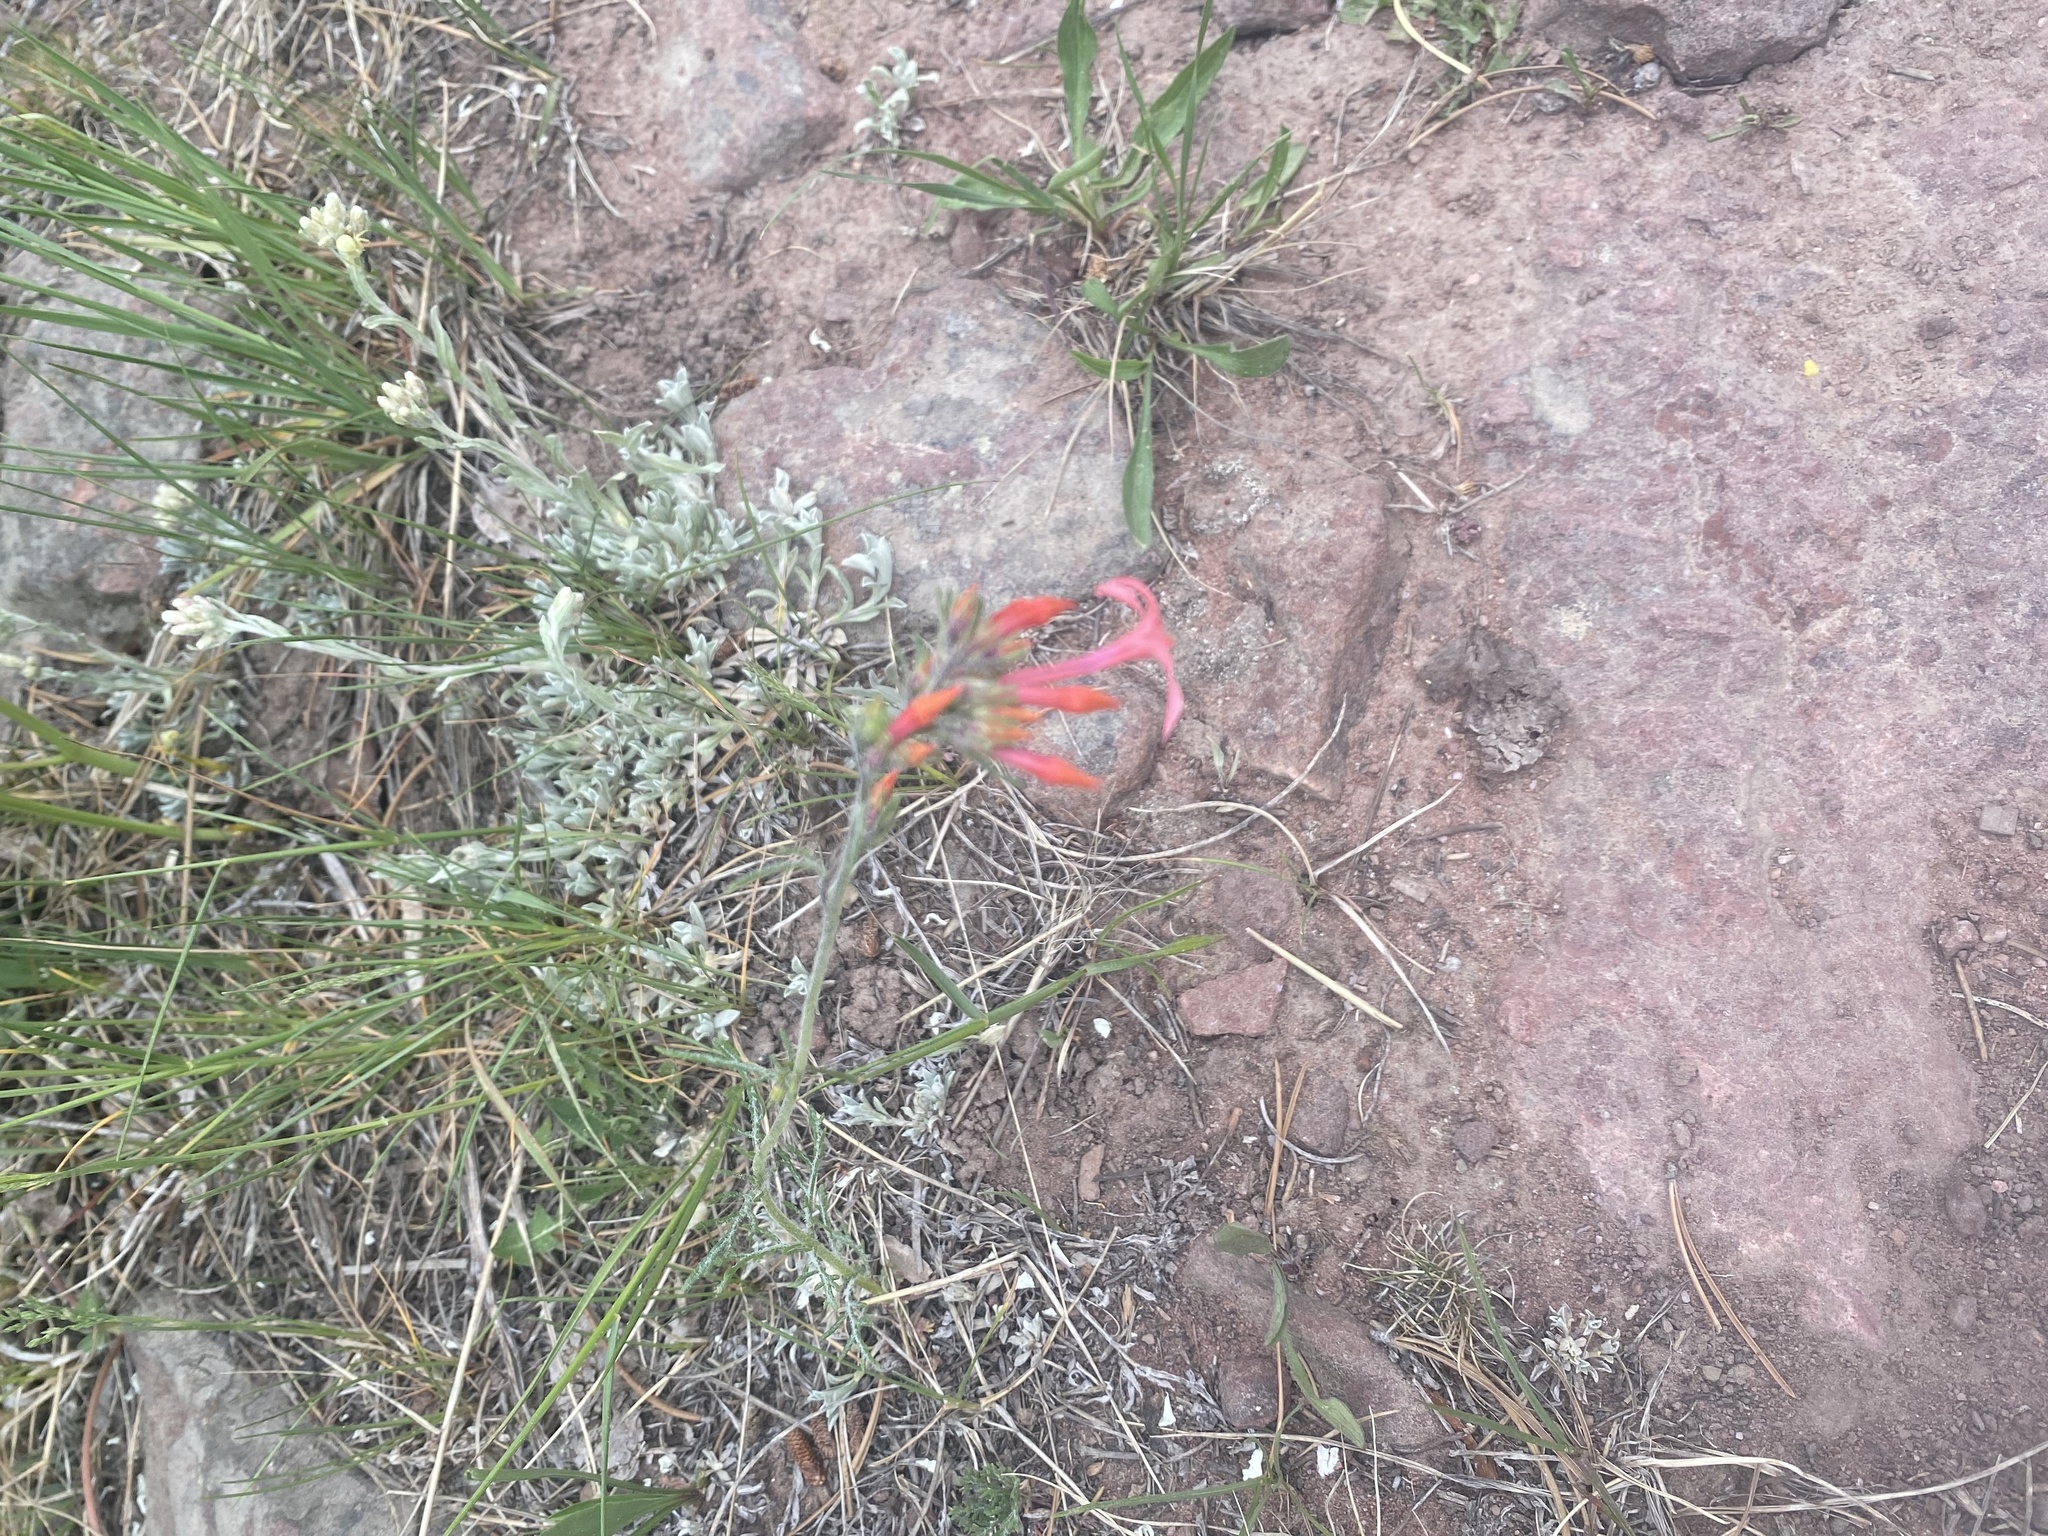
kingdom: Plantae
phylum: Tracheophyta
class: Magnoliopsida
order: Ericales
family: Polemoniaceae
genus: Ipomopsis
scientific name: Ipomopsis aggregata
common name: Scarlet gilia
